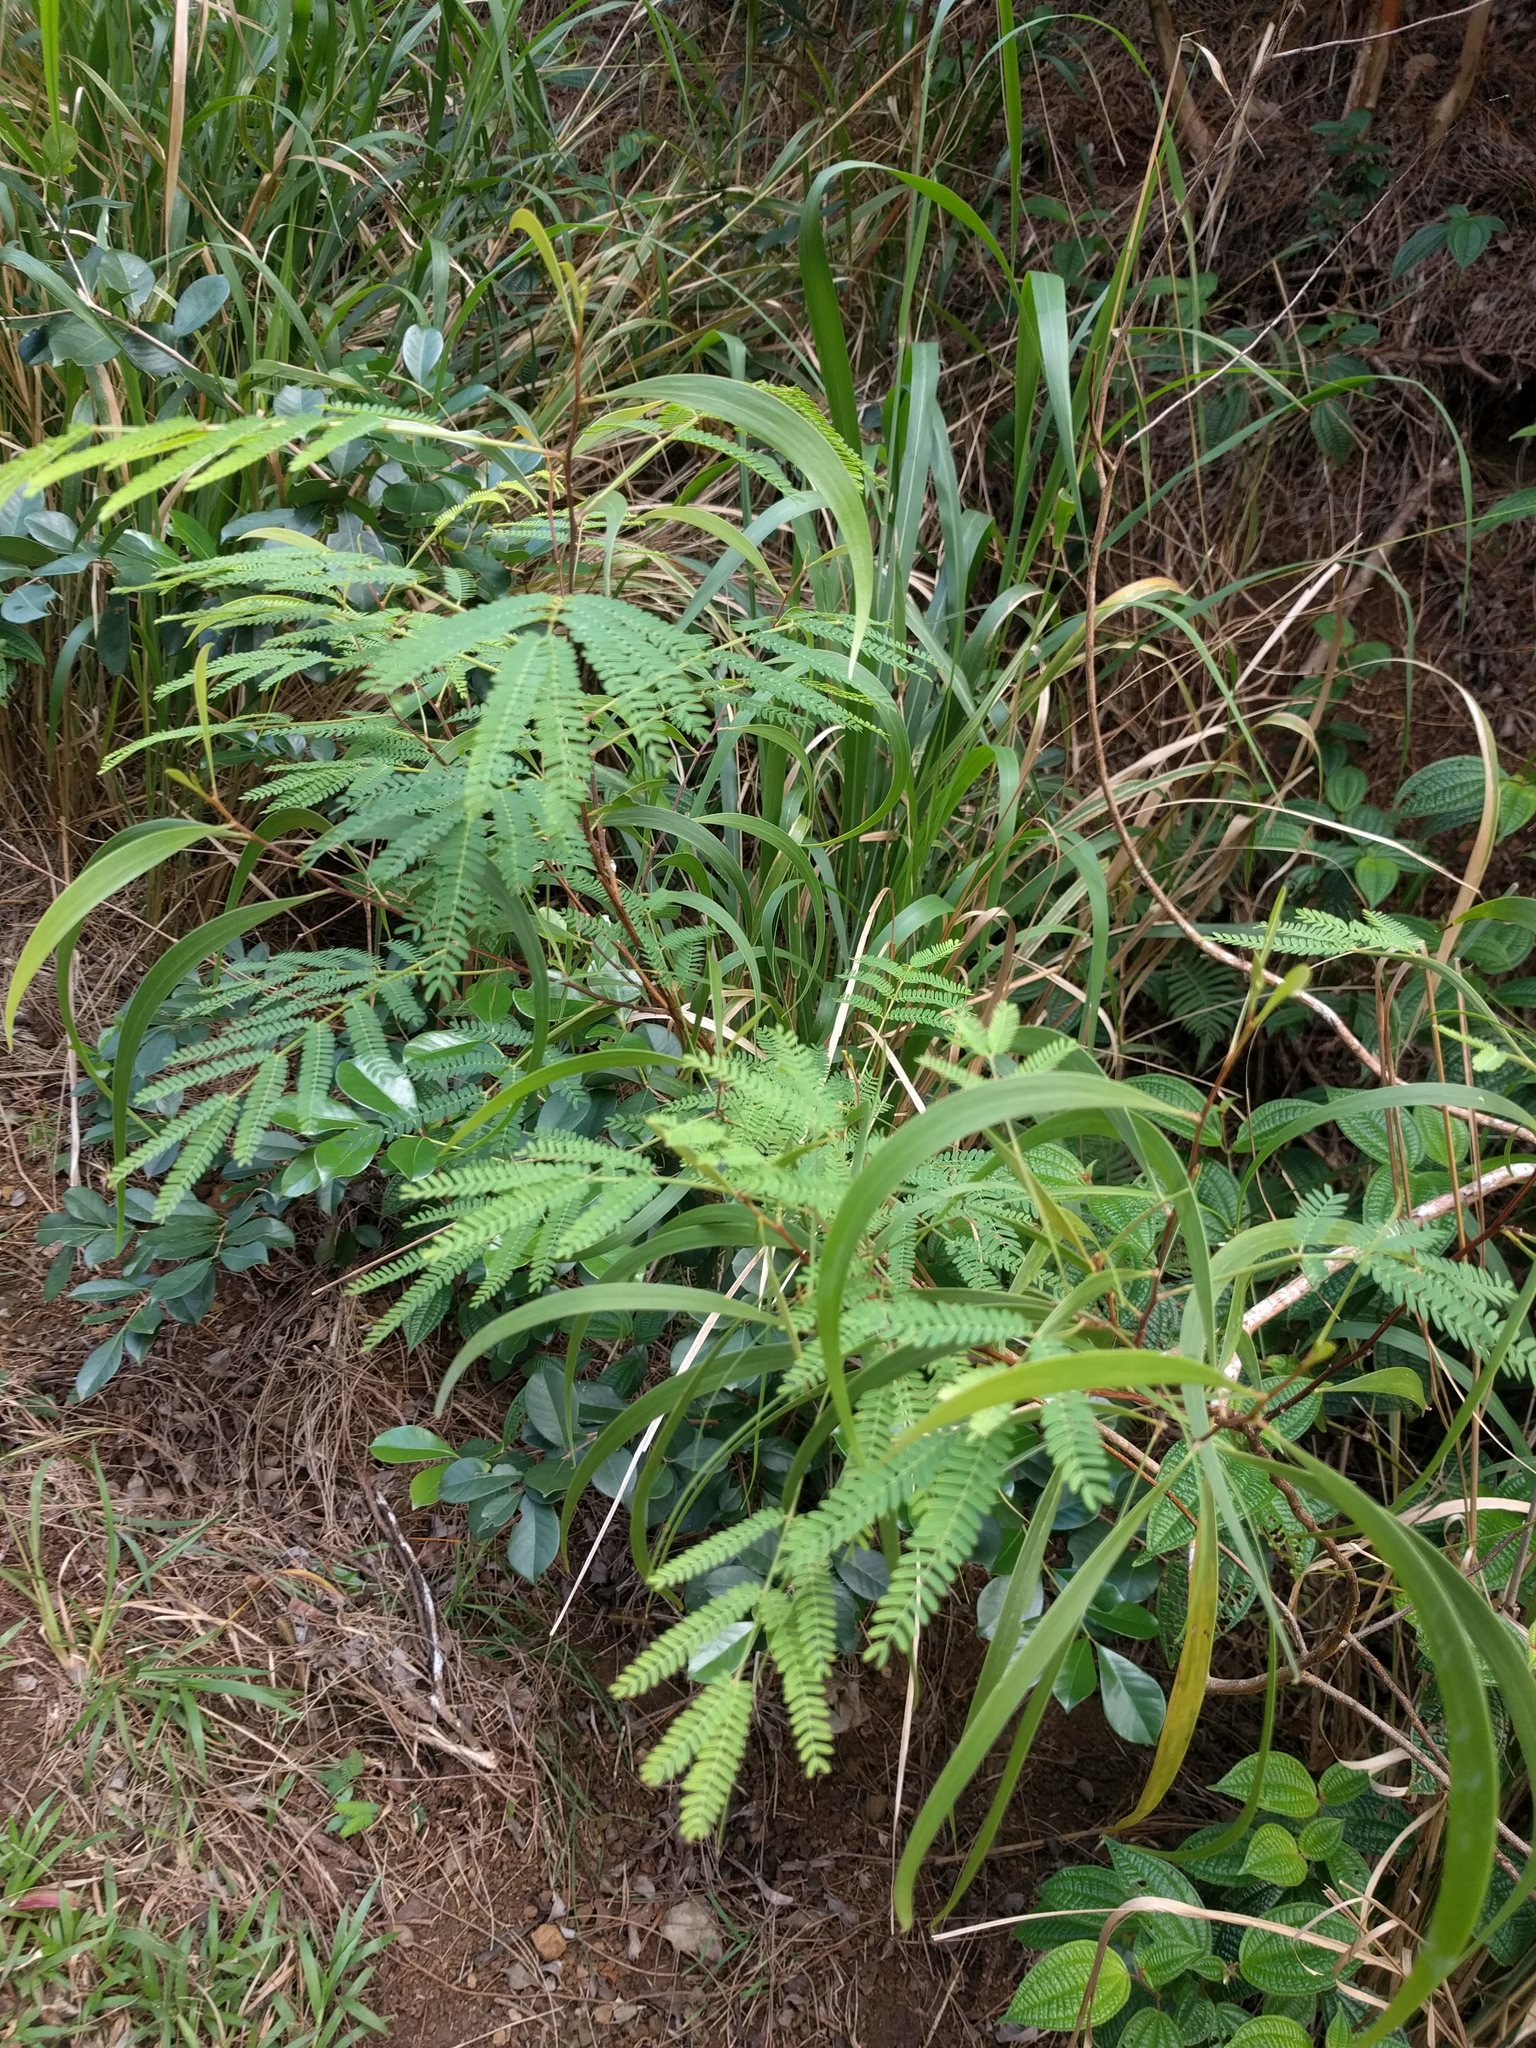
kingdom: Plantae
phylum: Tracheophyta
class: Magnoliopsida
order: Fabales
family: Fabaceae
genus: Acacia
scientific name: Acacia koa
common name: Gray koa
